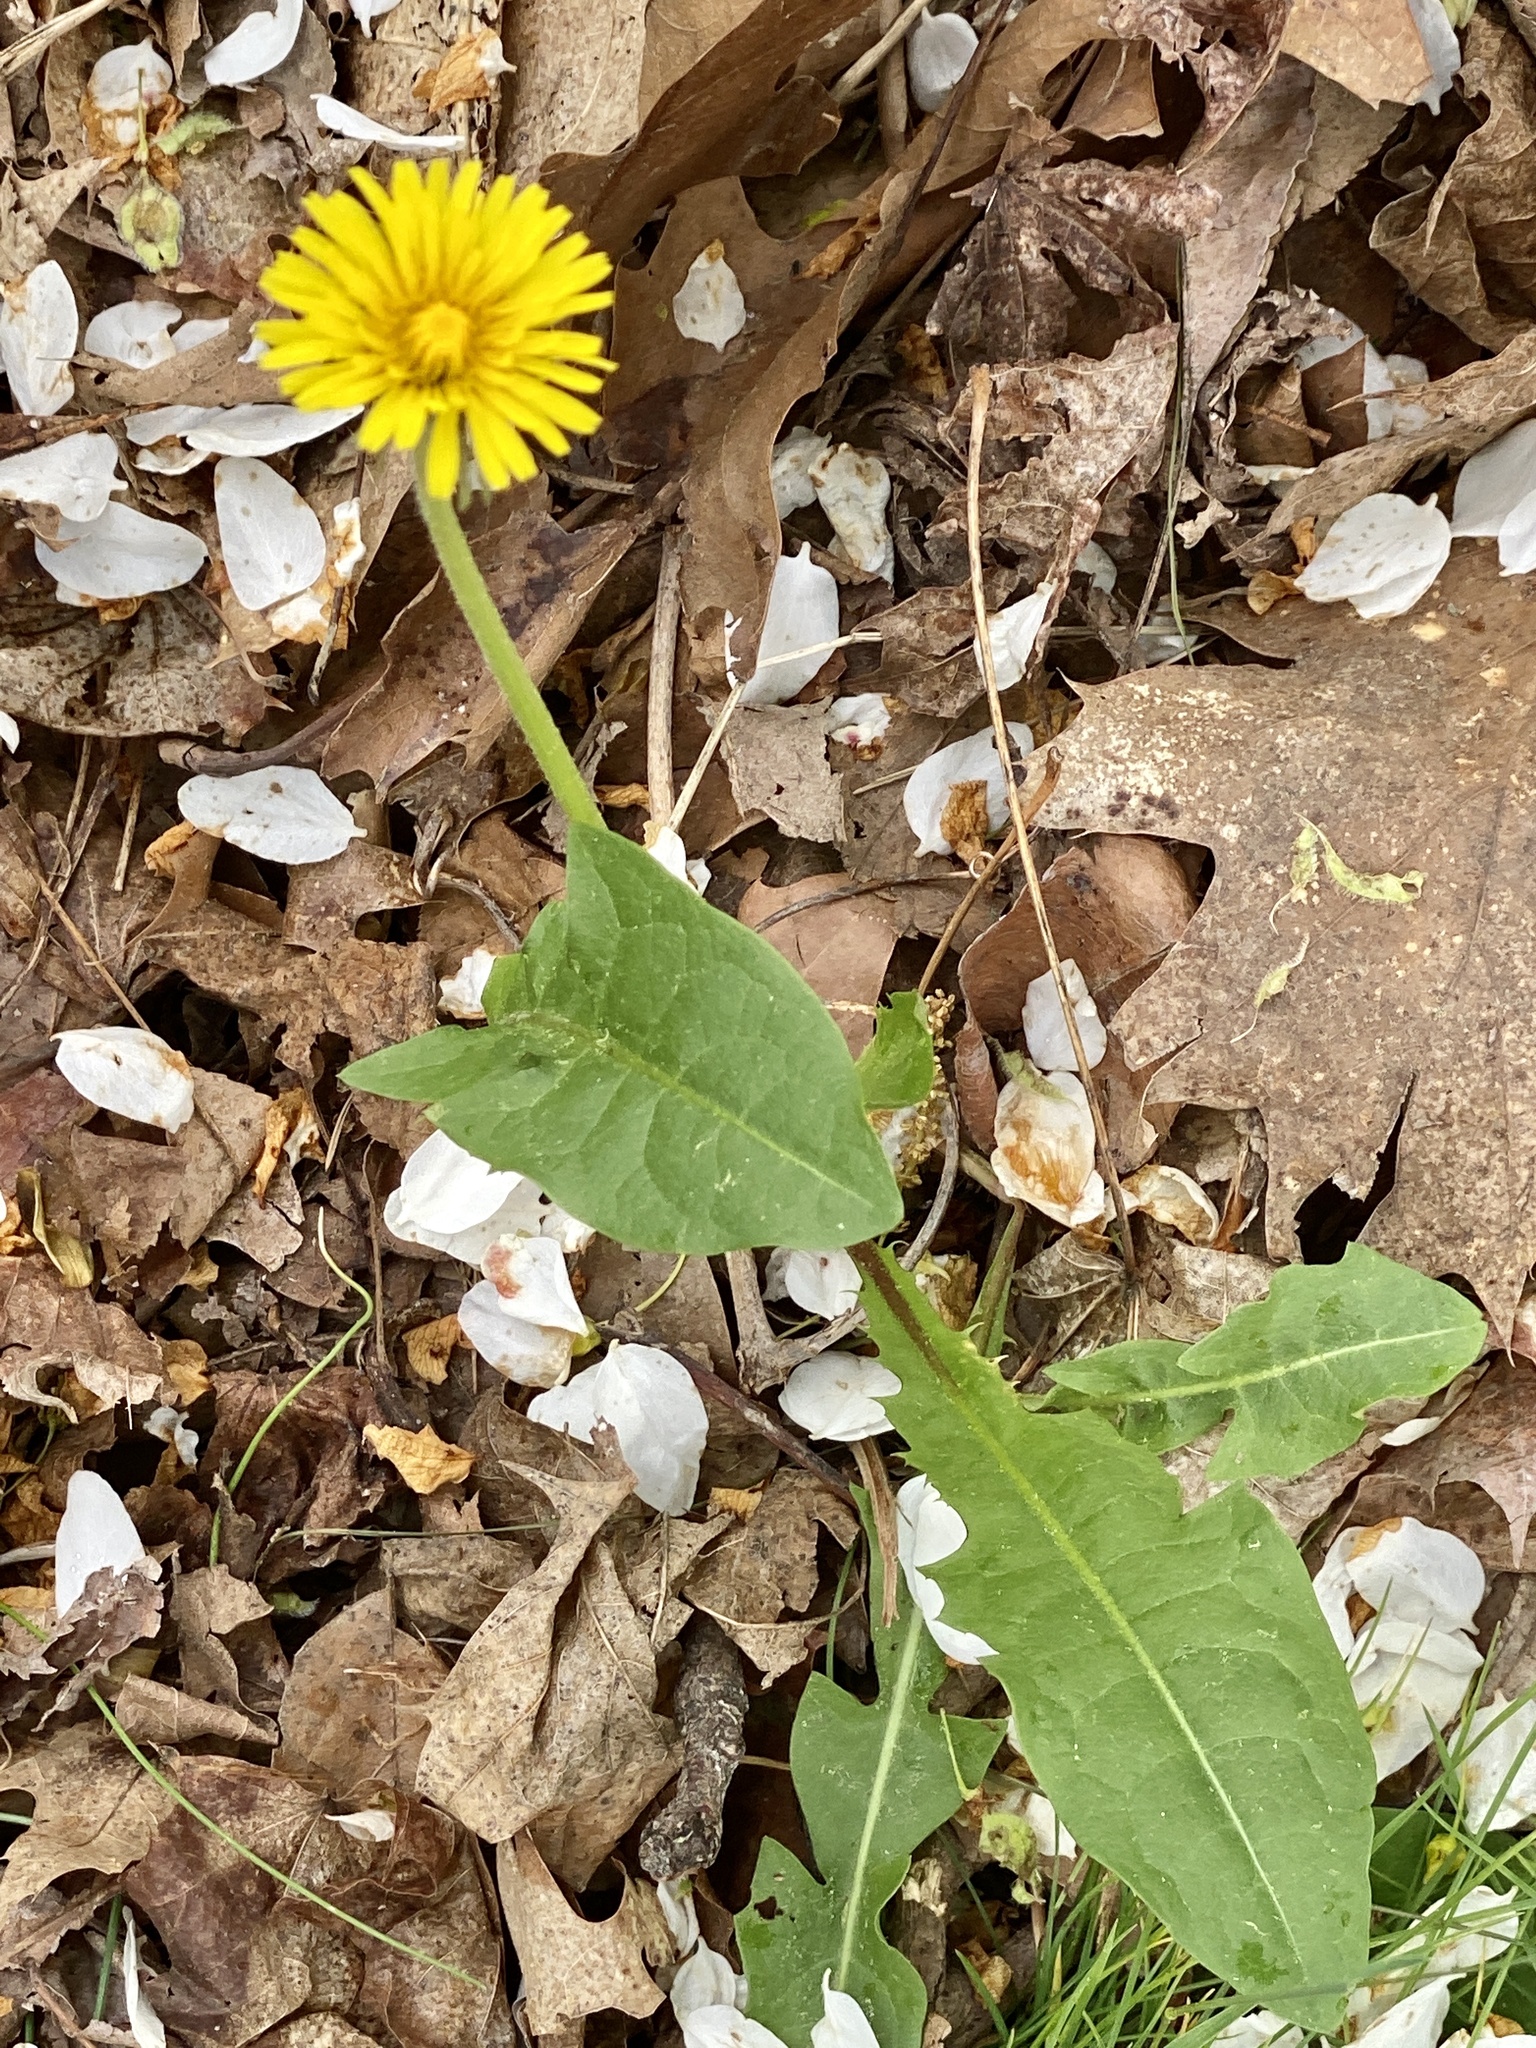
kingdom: Plantae
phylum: Tracheophyta
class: Magnoliopsida
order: Asterales
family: Asteraceae
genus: Taraxacum
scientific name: Taraxacum officinale
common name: Common dandelion
